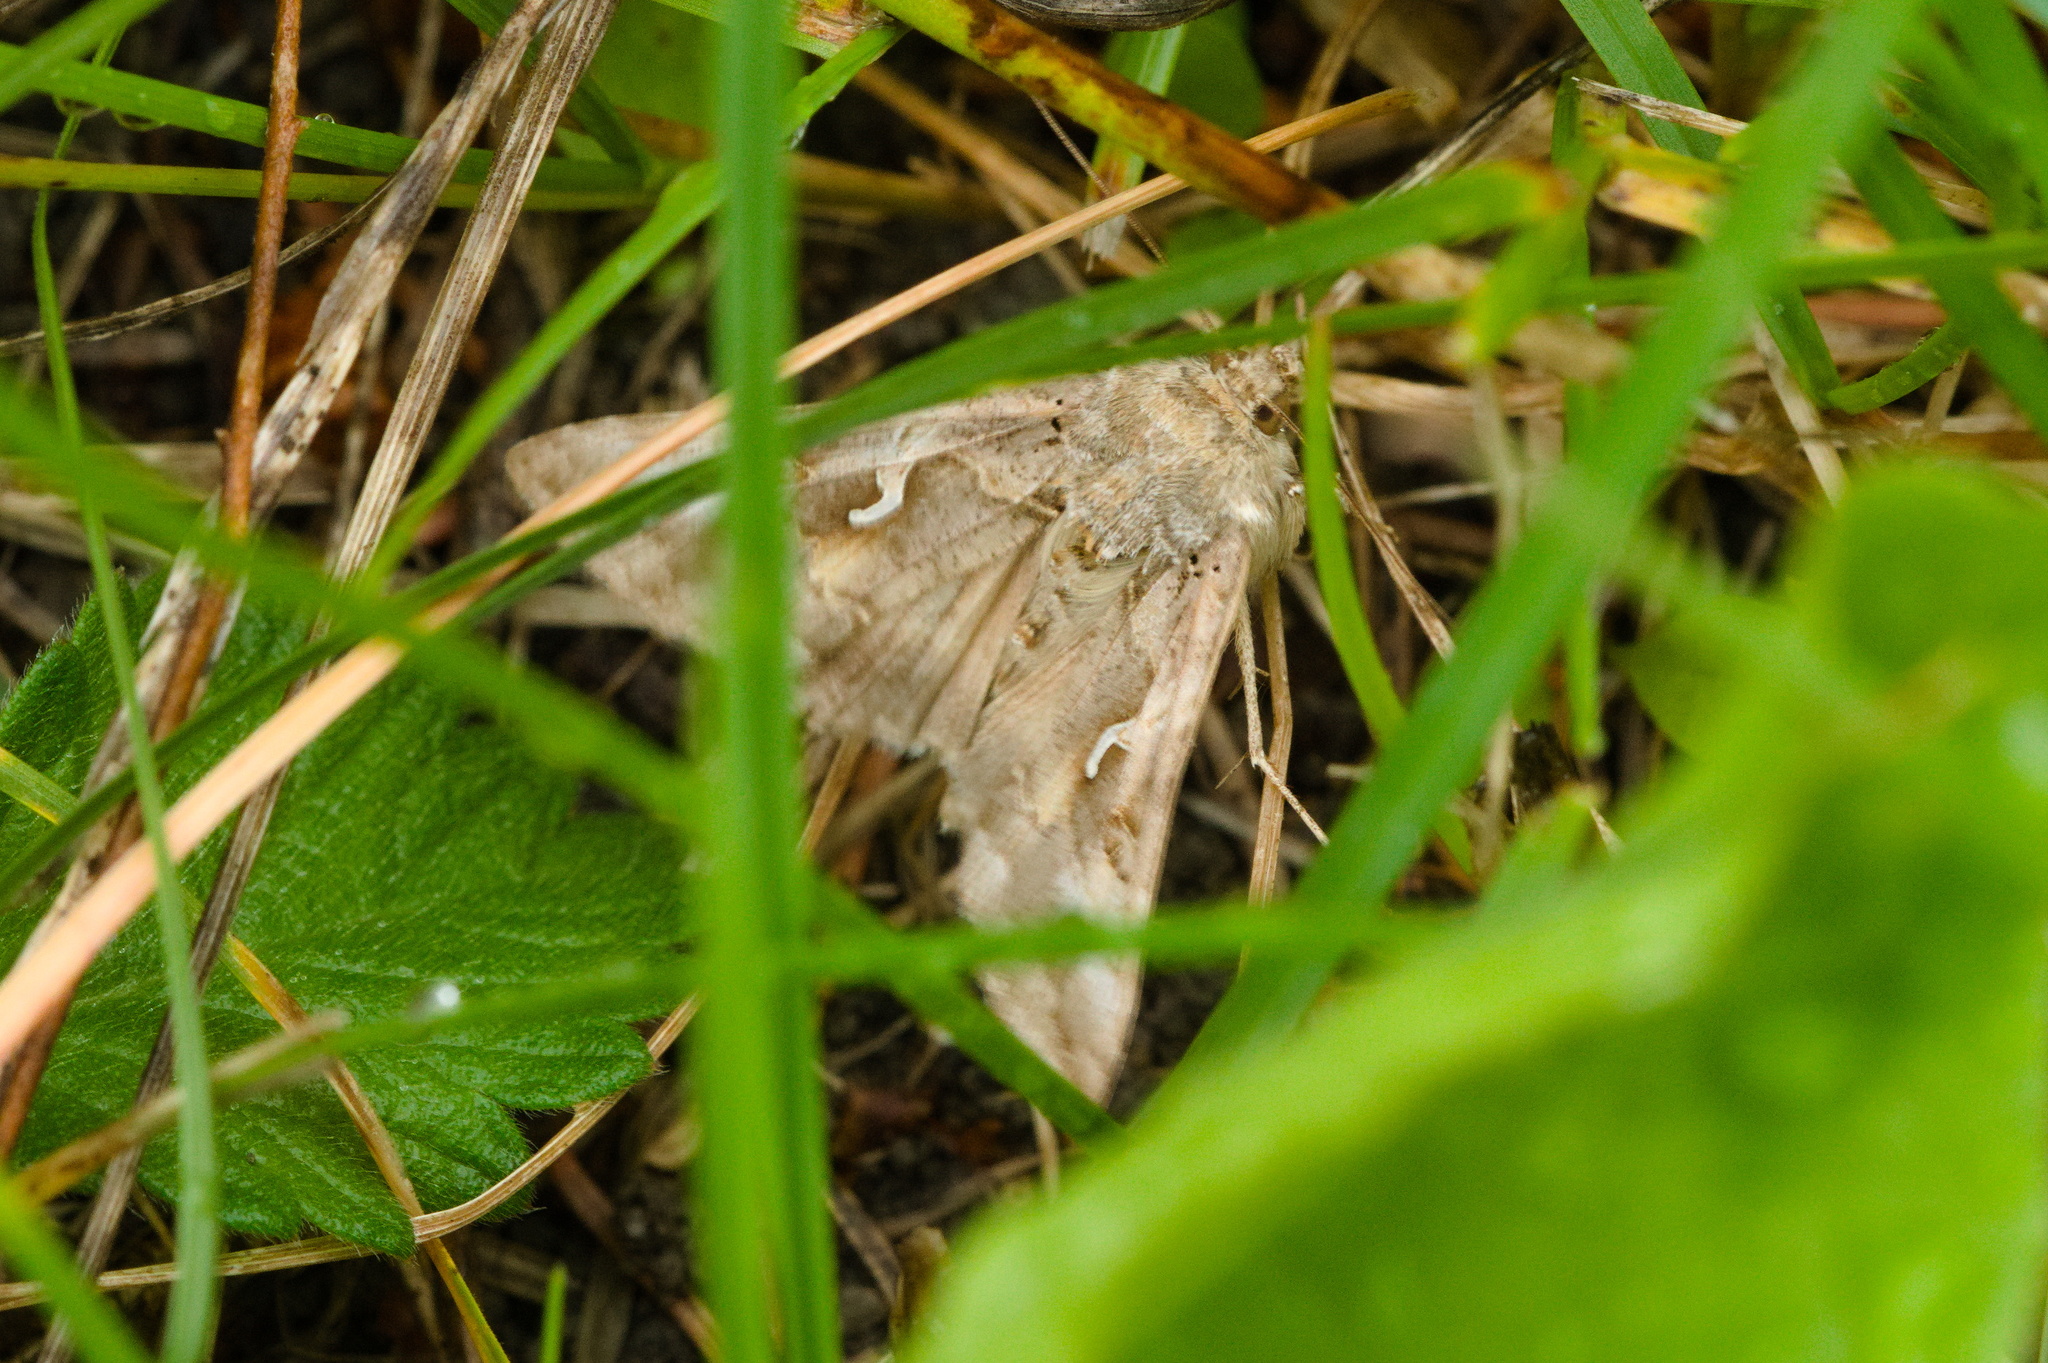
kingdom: Animalia
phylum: Arthropoda
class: Insecta
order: Lepidoptera
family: Noctuidae
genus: Autographa
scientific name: Autographa gamma
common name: Silver y
